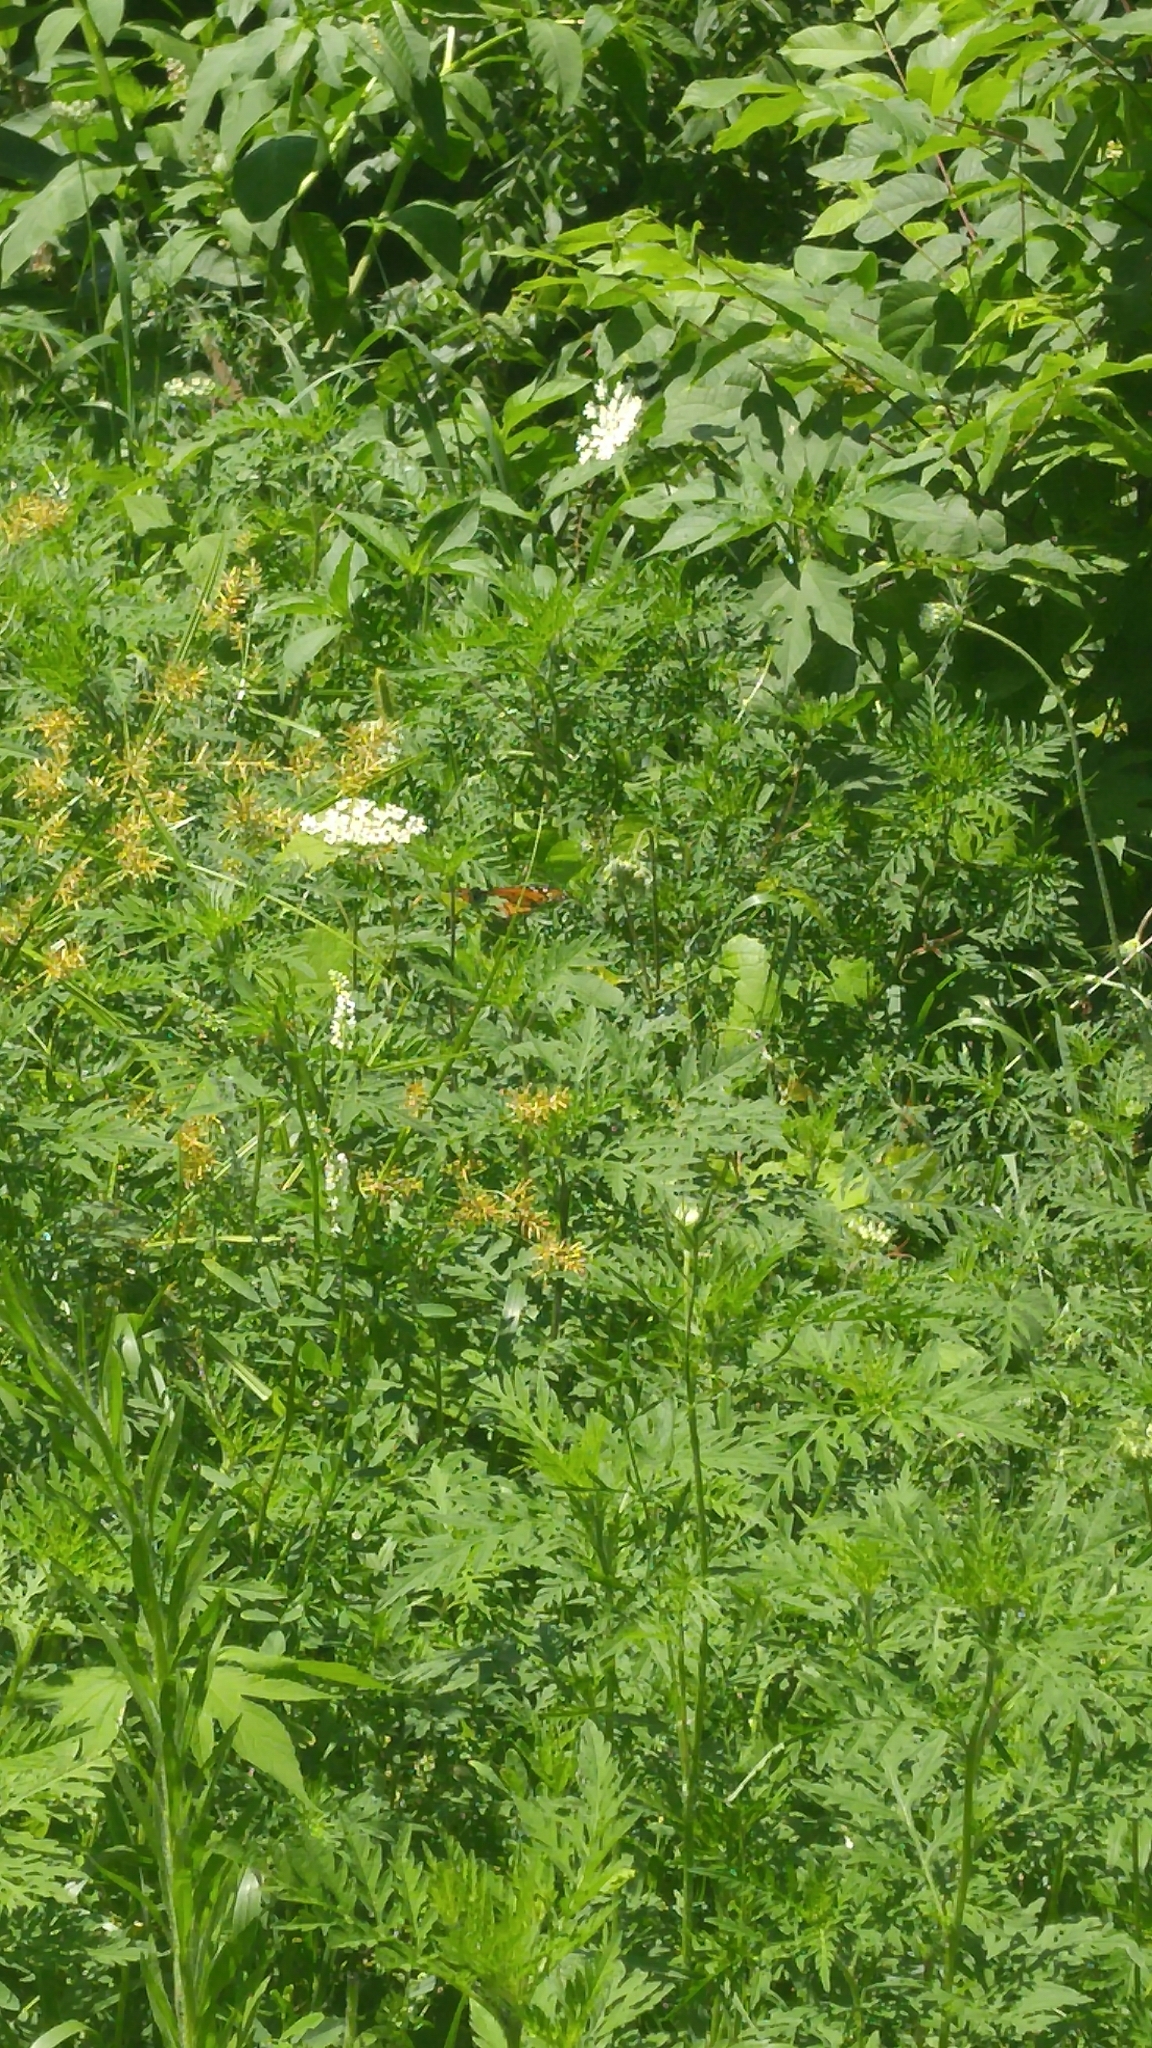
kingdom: Animalia
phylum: Arthropoda
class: Insecta
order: Lepidoptera
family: Nymphalidae
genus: Danaus
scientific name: Danaus plexippus
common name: Monarch
